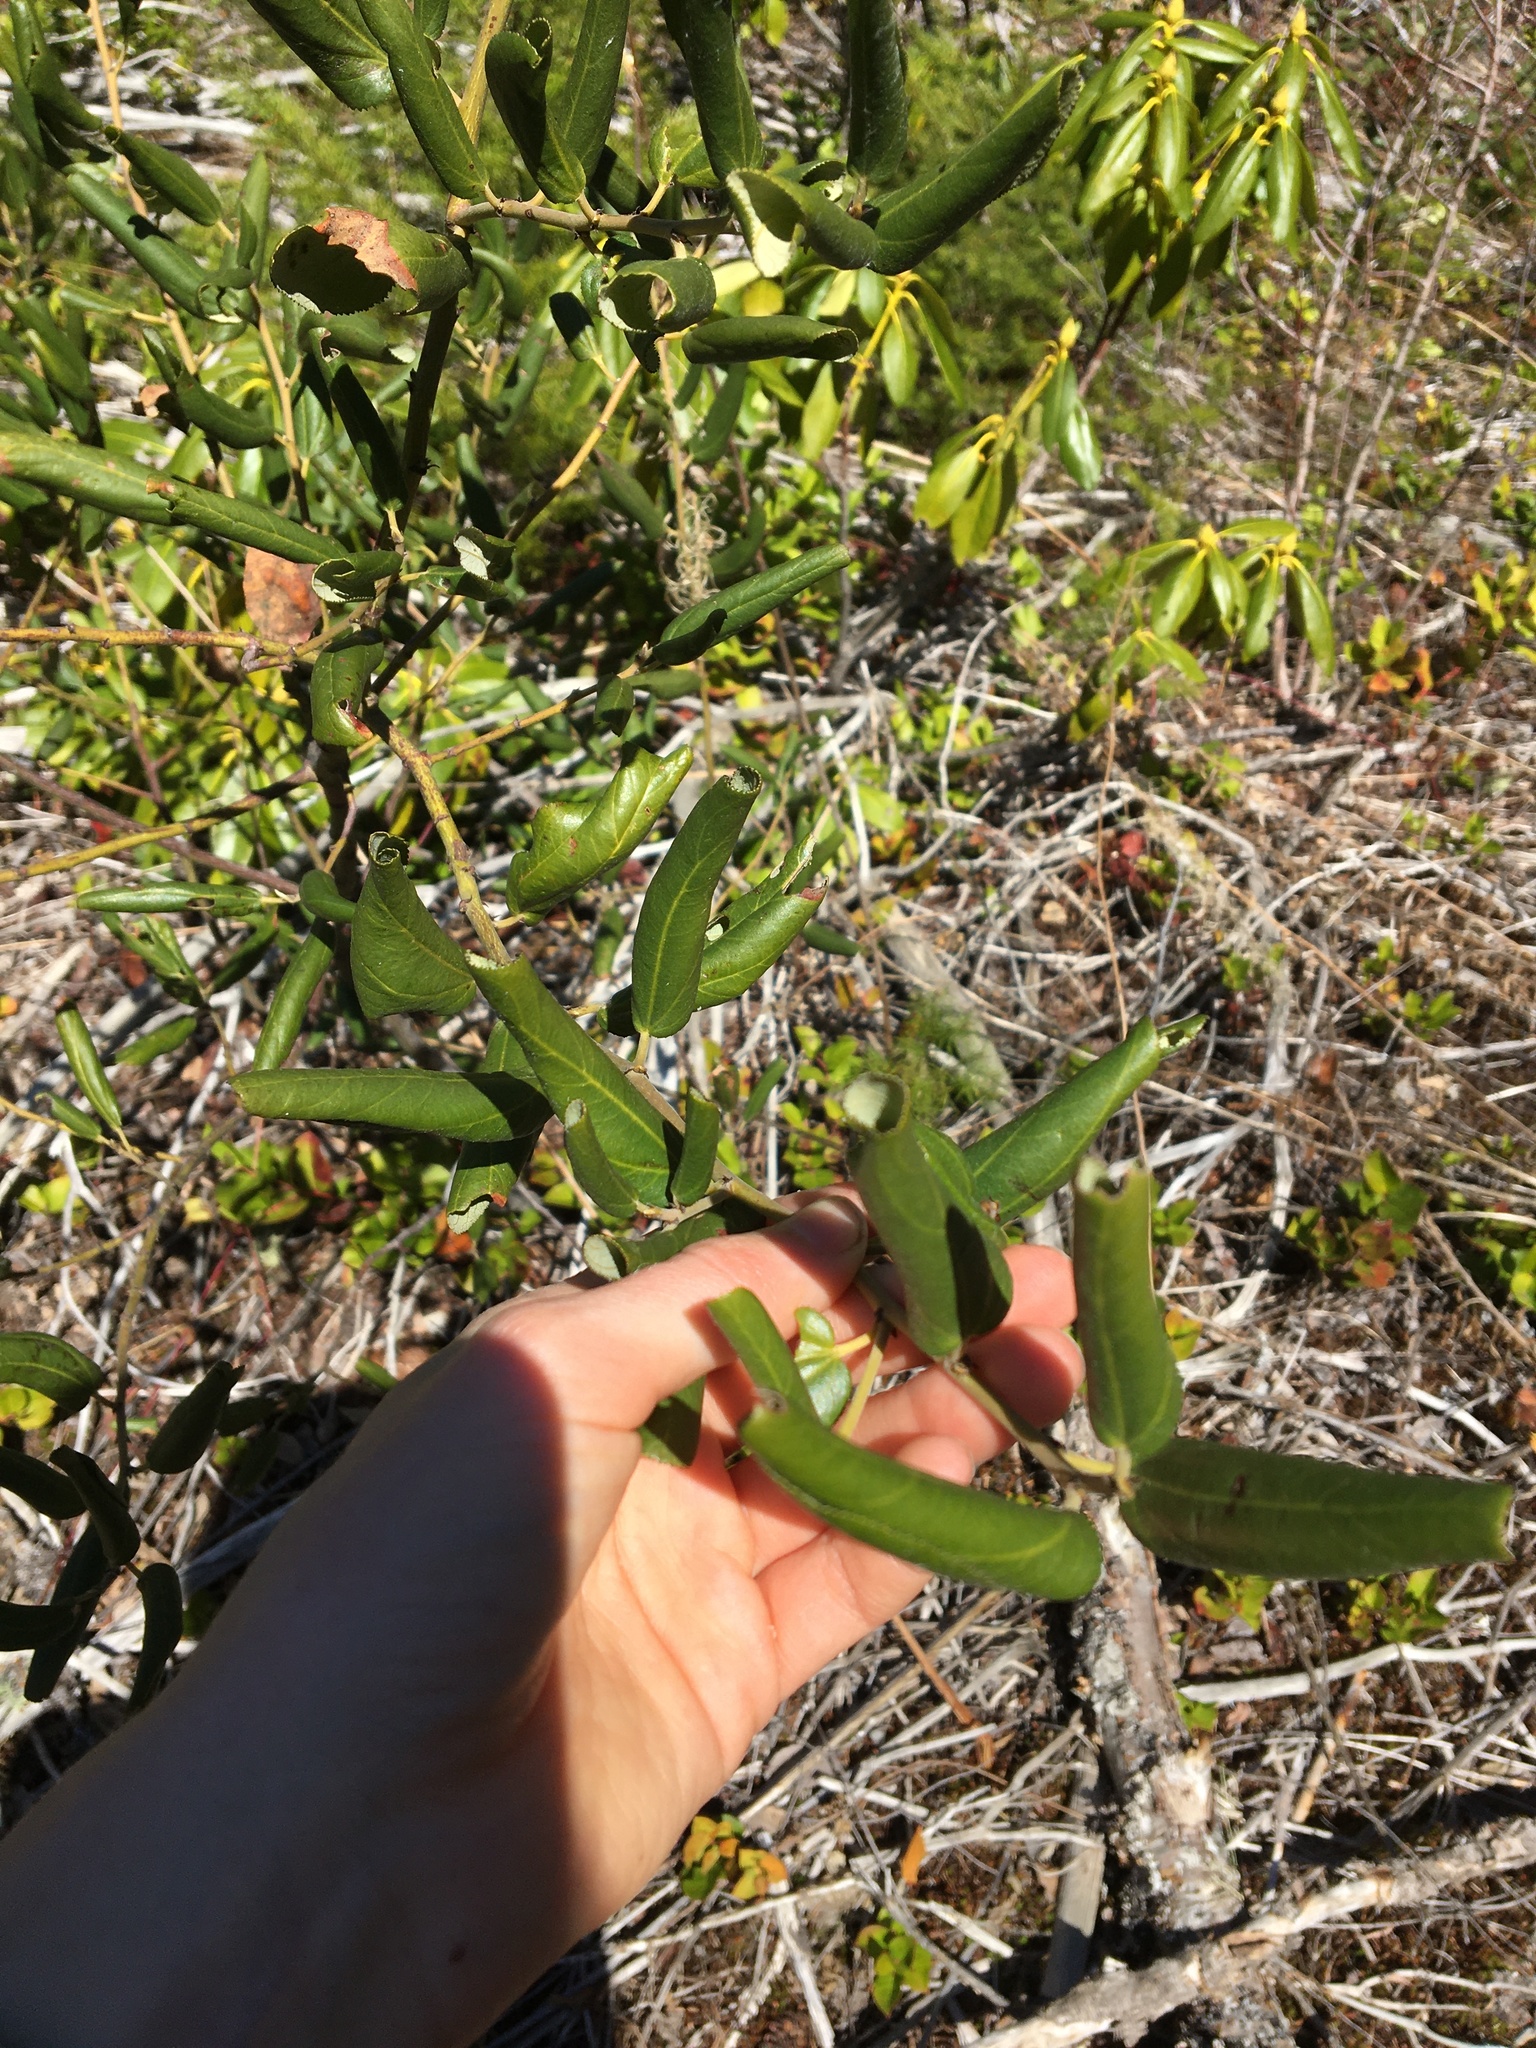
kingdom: Plantae
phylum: Tracheophyta
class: Magnoliopsida
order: Rosales
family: Rhamnaceae
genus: Ceanothus
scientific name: Ceanothus velutinus
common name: Snowbrush
